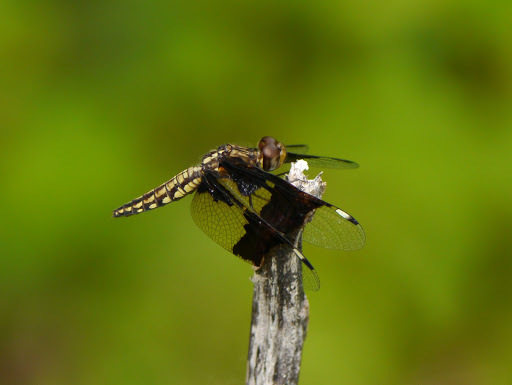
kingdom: Animalia
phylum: Arthropoda
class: Insecta
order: Odonata
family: Libellulidae
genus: Palpopleura
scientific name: Palpopleura lucia
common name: Lucia widow
